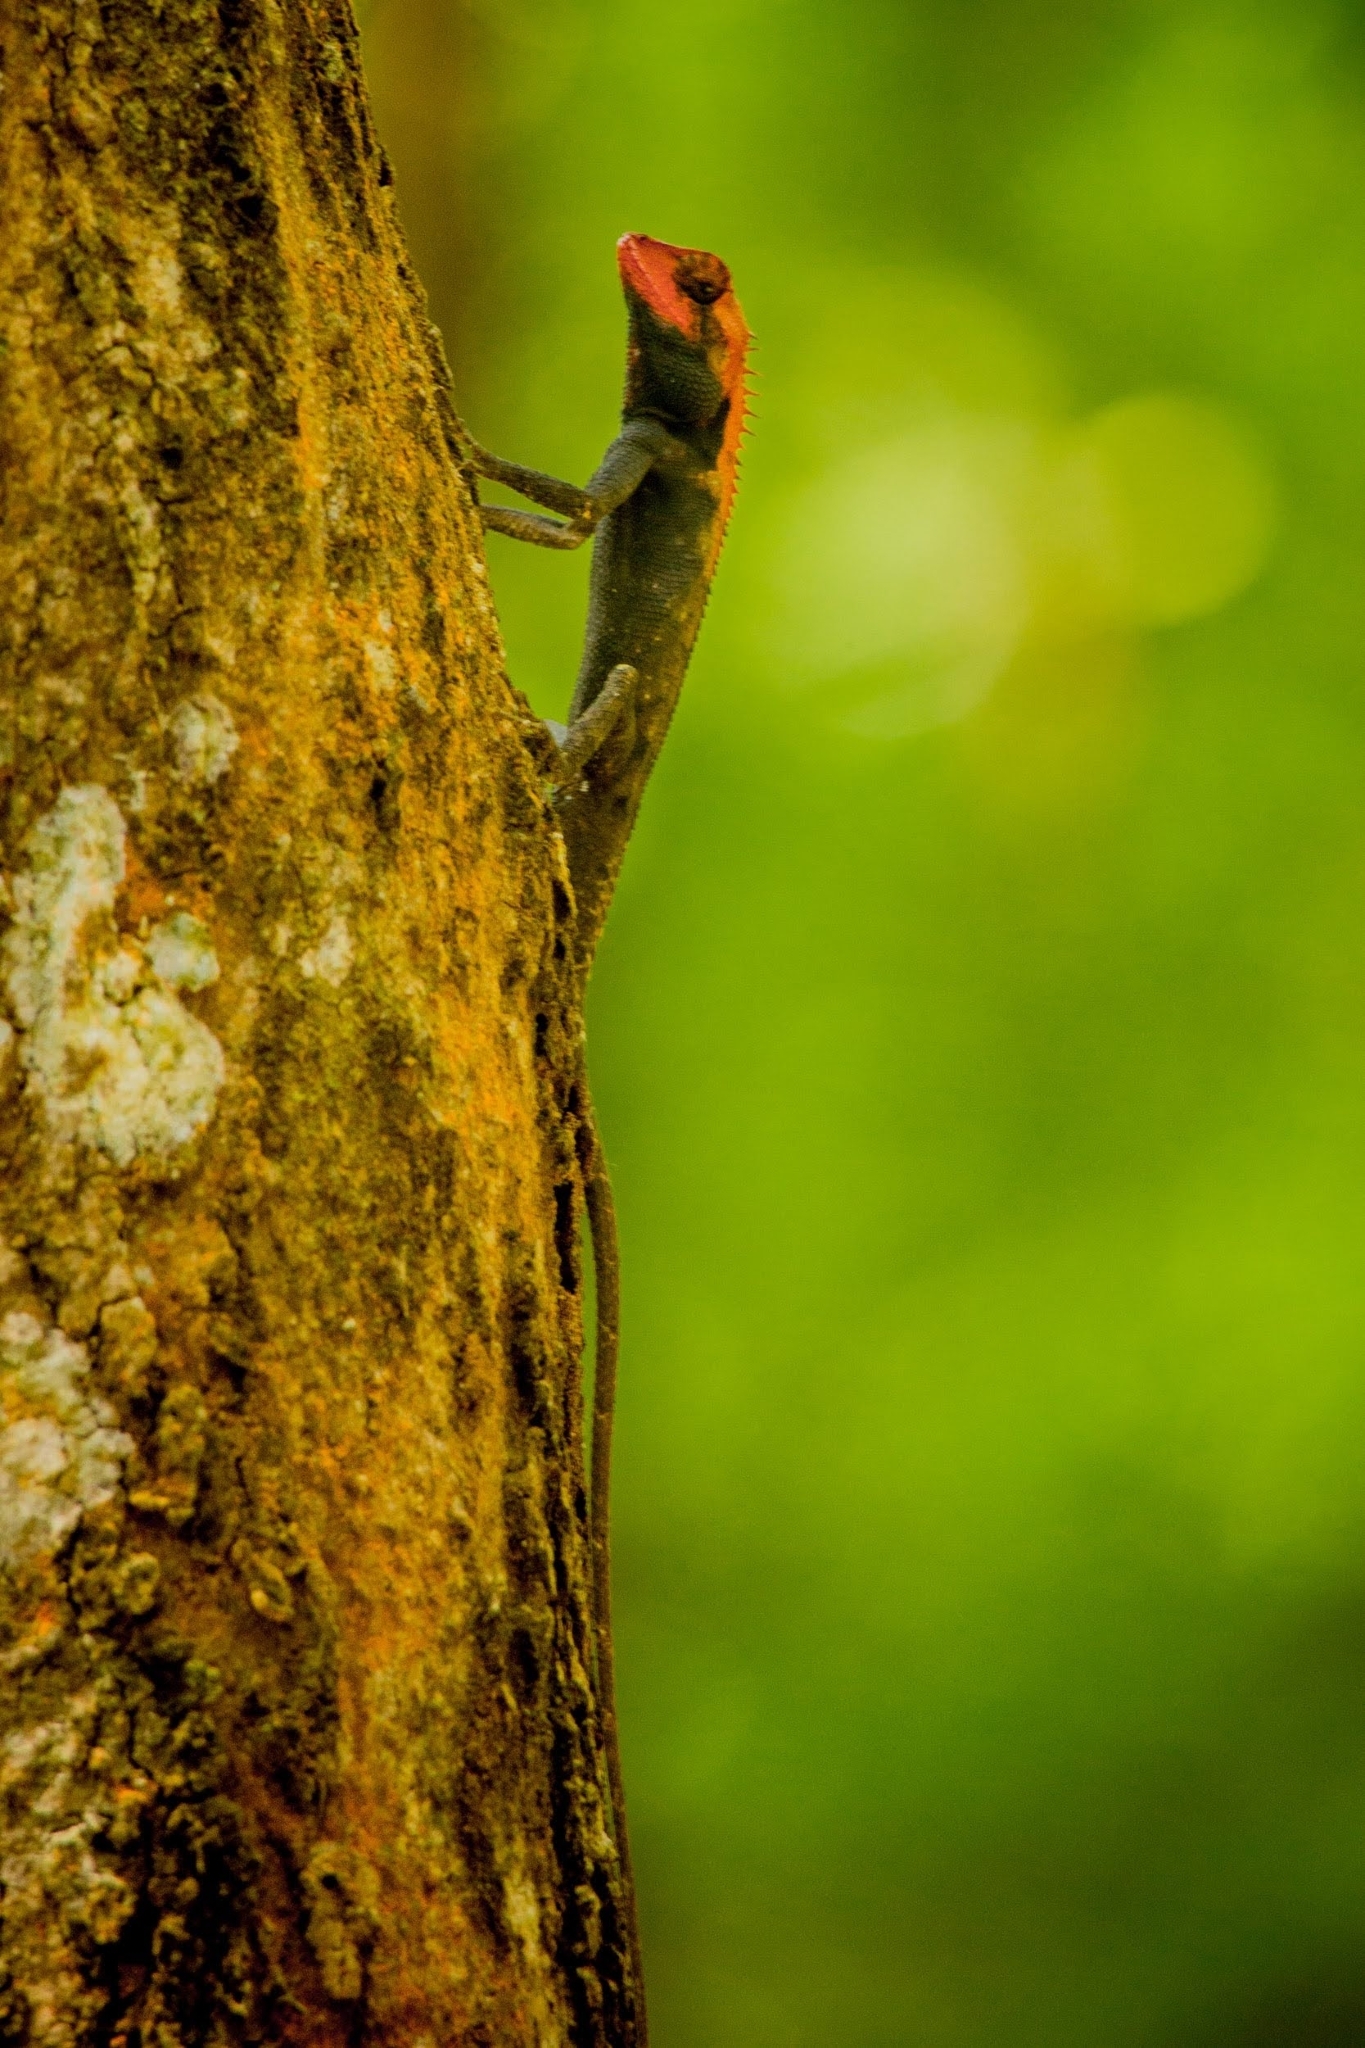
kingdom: Animalia
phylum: Chordata
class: Squamata
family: Agamidae
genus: Monilesaurus
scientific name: Monilesaurus rouxii
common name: Roux's forest lizard
